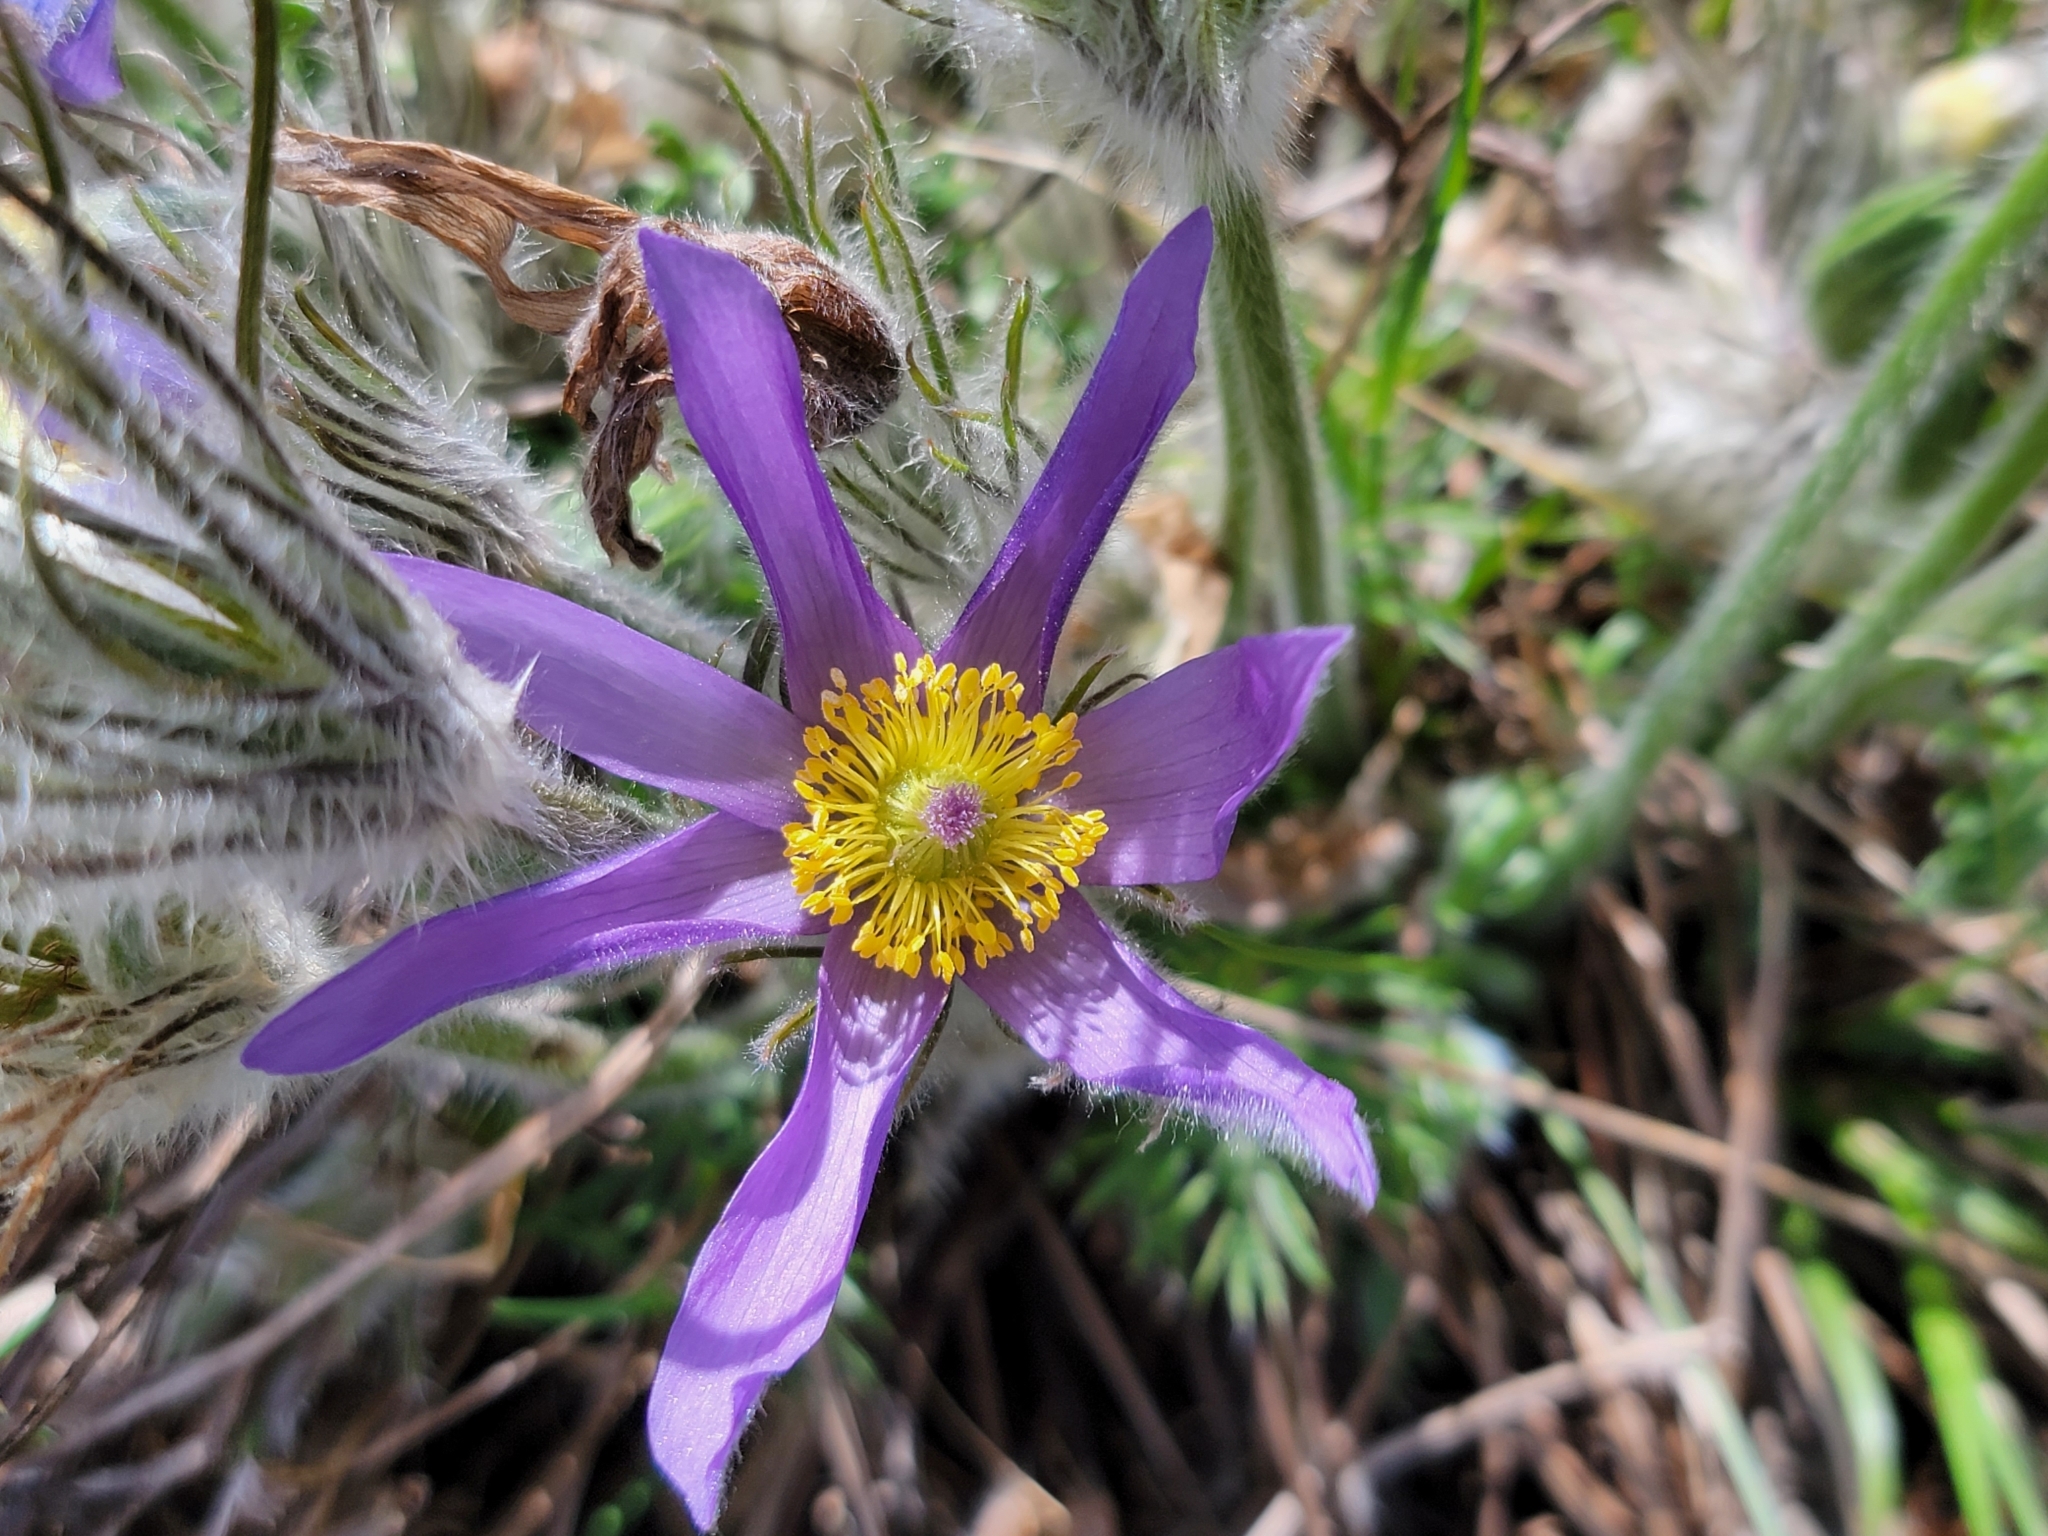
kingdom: Plantae
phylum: Tracheophyta
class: Magnoliopsida
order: Ranunculales
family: Ranunculaceae
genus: Pulsatilla
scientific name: Pulsatilla grandis
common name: Greater pasque flower
